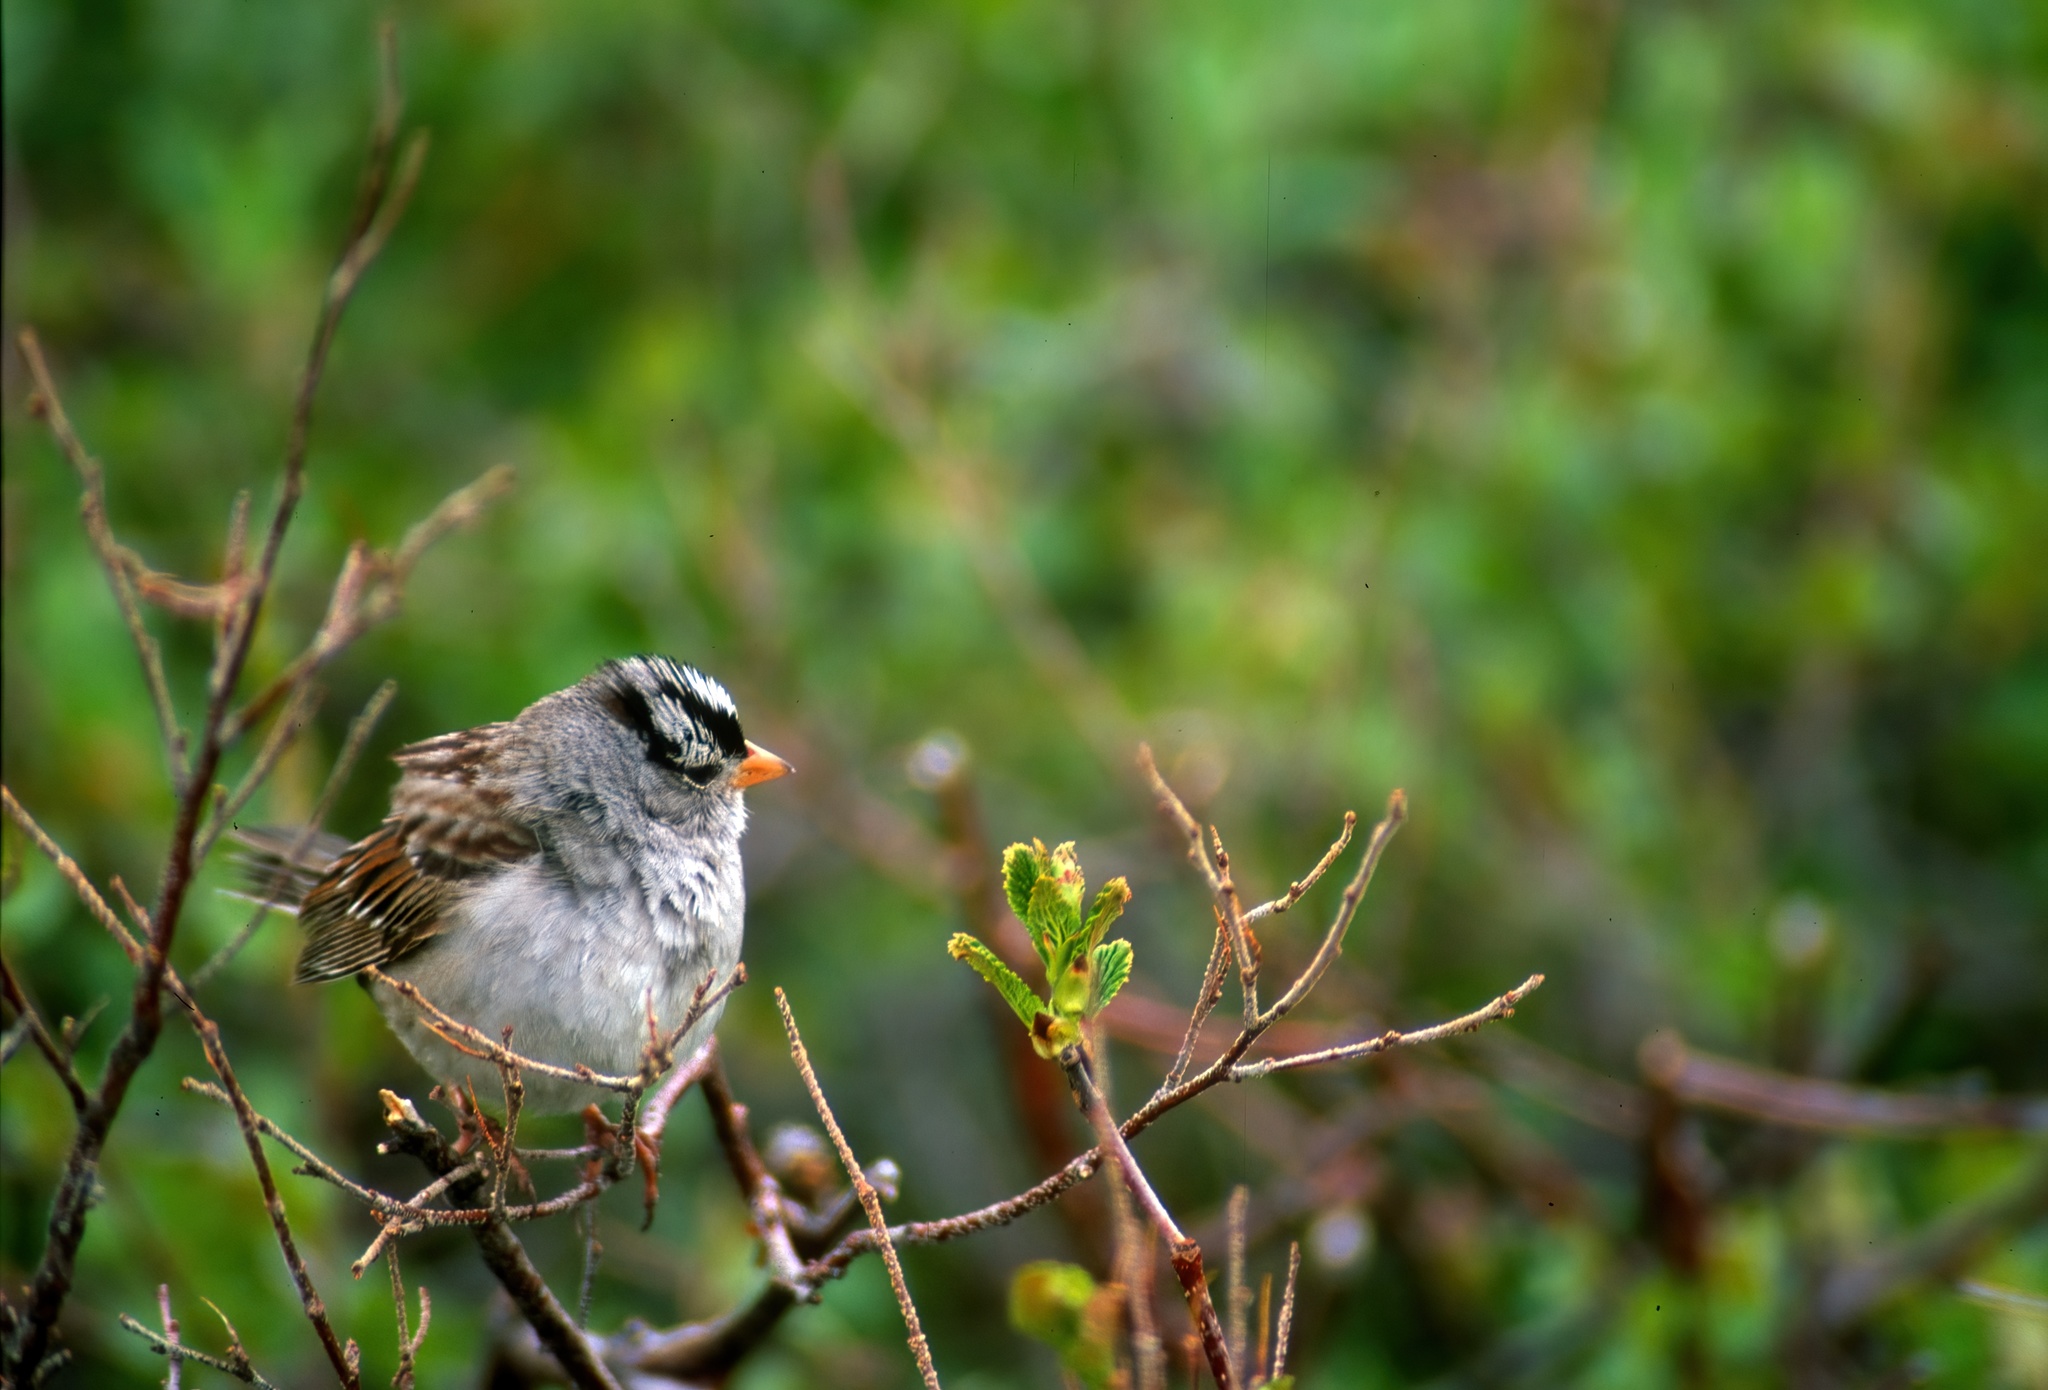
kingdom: Animalia
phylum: Chordata
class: Aves
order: Passeriformes
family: Passerellidae
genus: Zonotrichia
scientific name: Zonotrichia leucophrys
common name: White-crowned sparrow
